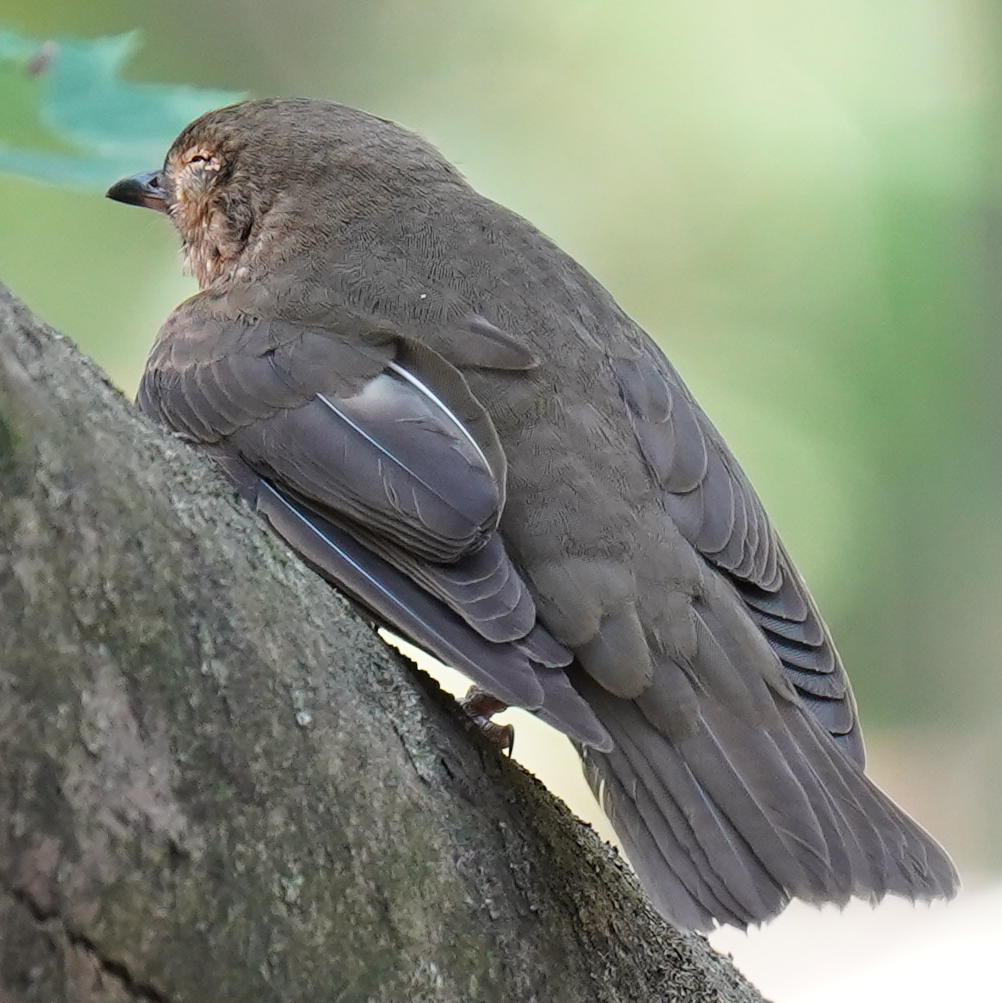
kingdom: Animalia
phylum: Chordata
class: Aves
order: Passeriformes
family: Turdidae
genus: Catharus
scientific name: Catharus ustulatus
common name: Swainson's thrush
